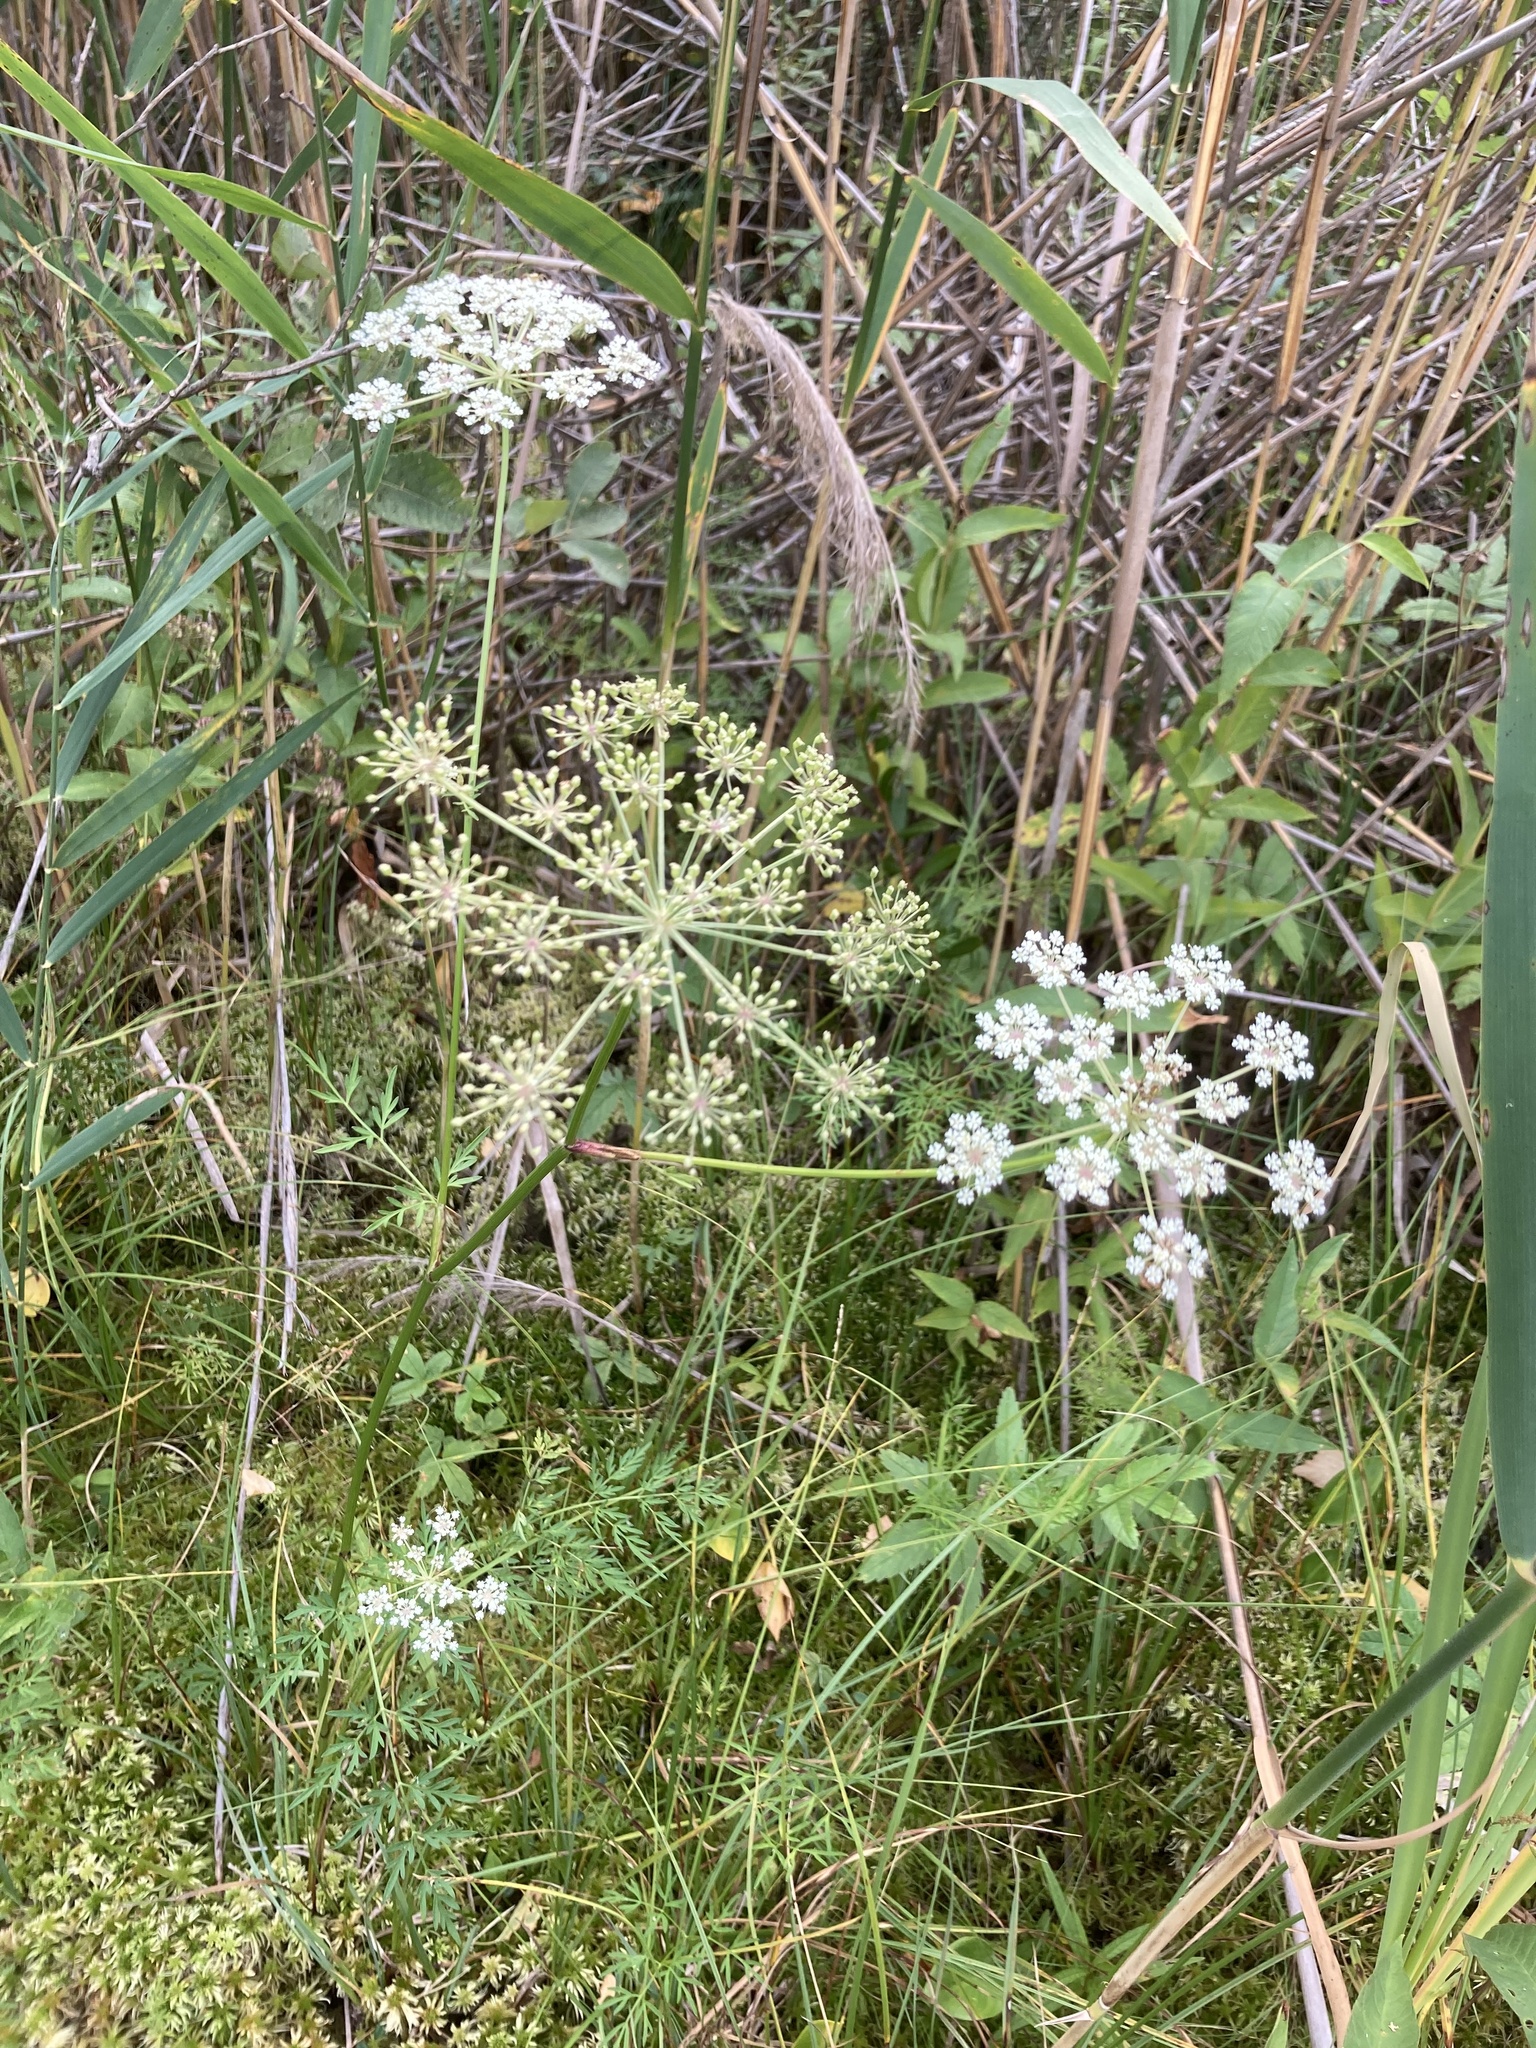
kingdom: Plantae
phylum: Tracheophyta
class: Magnoliopsida
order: Apiales
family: Apiaceae
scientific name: Apiaceae
